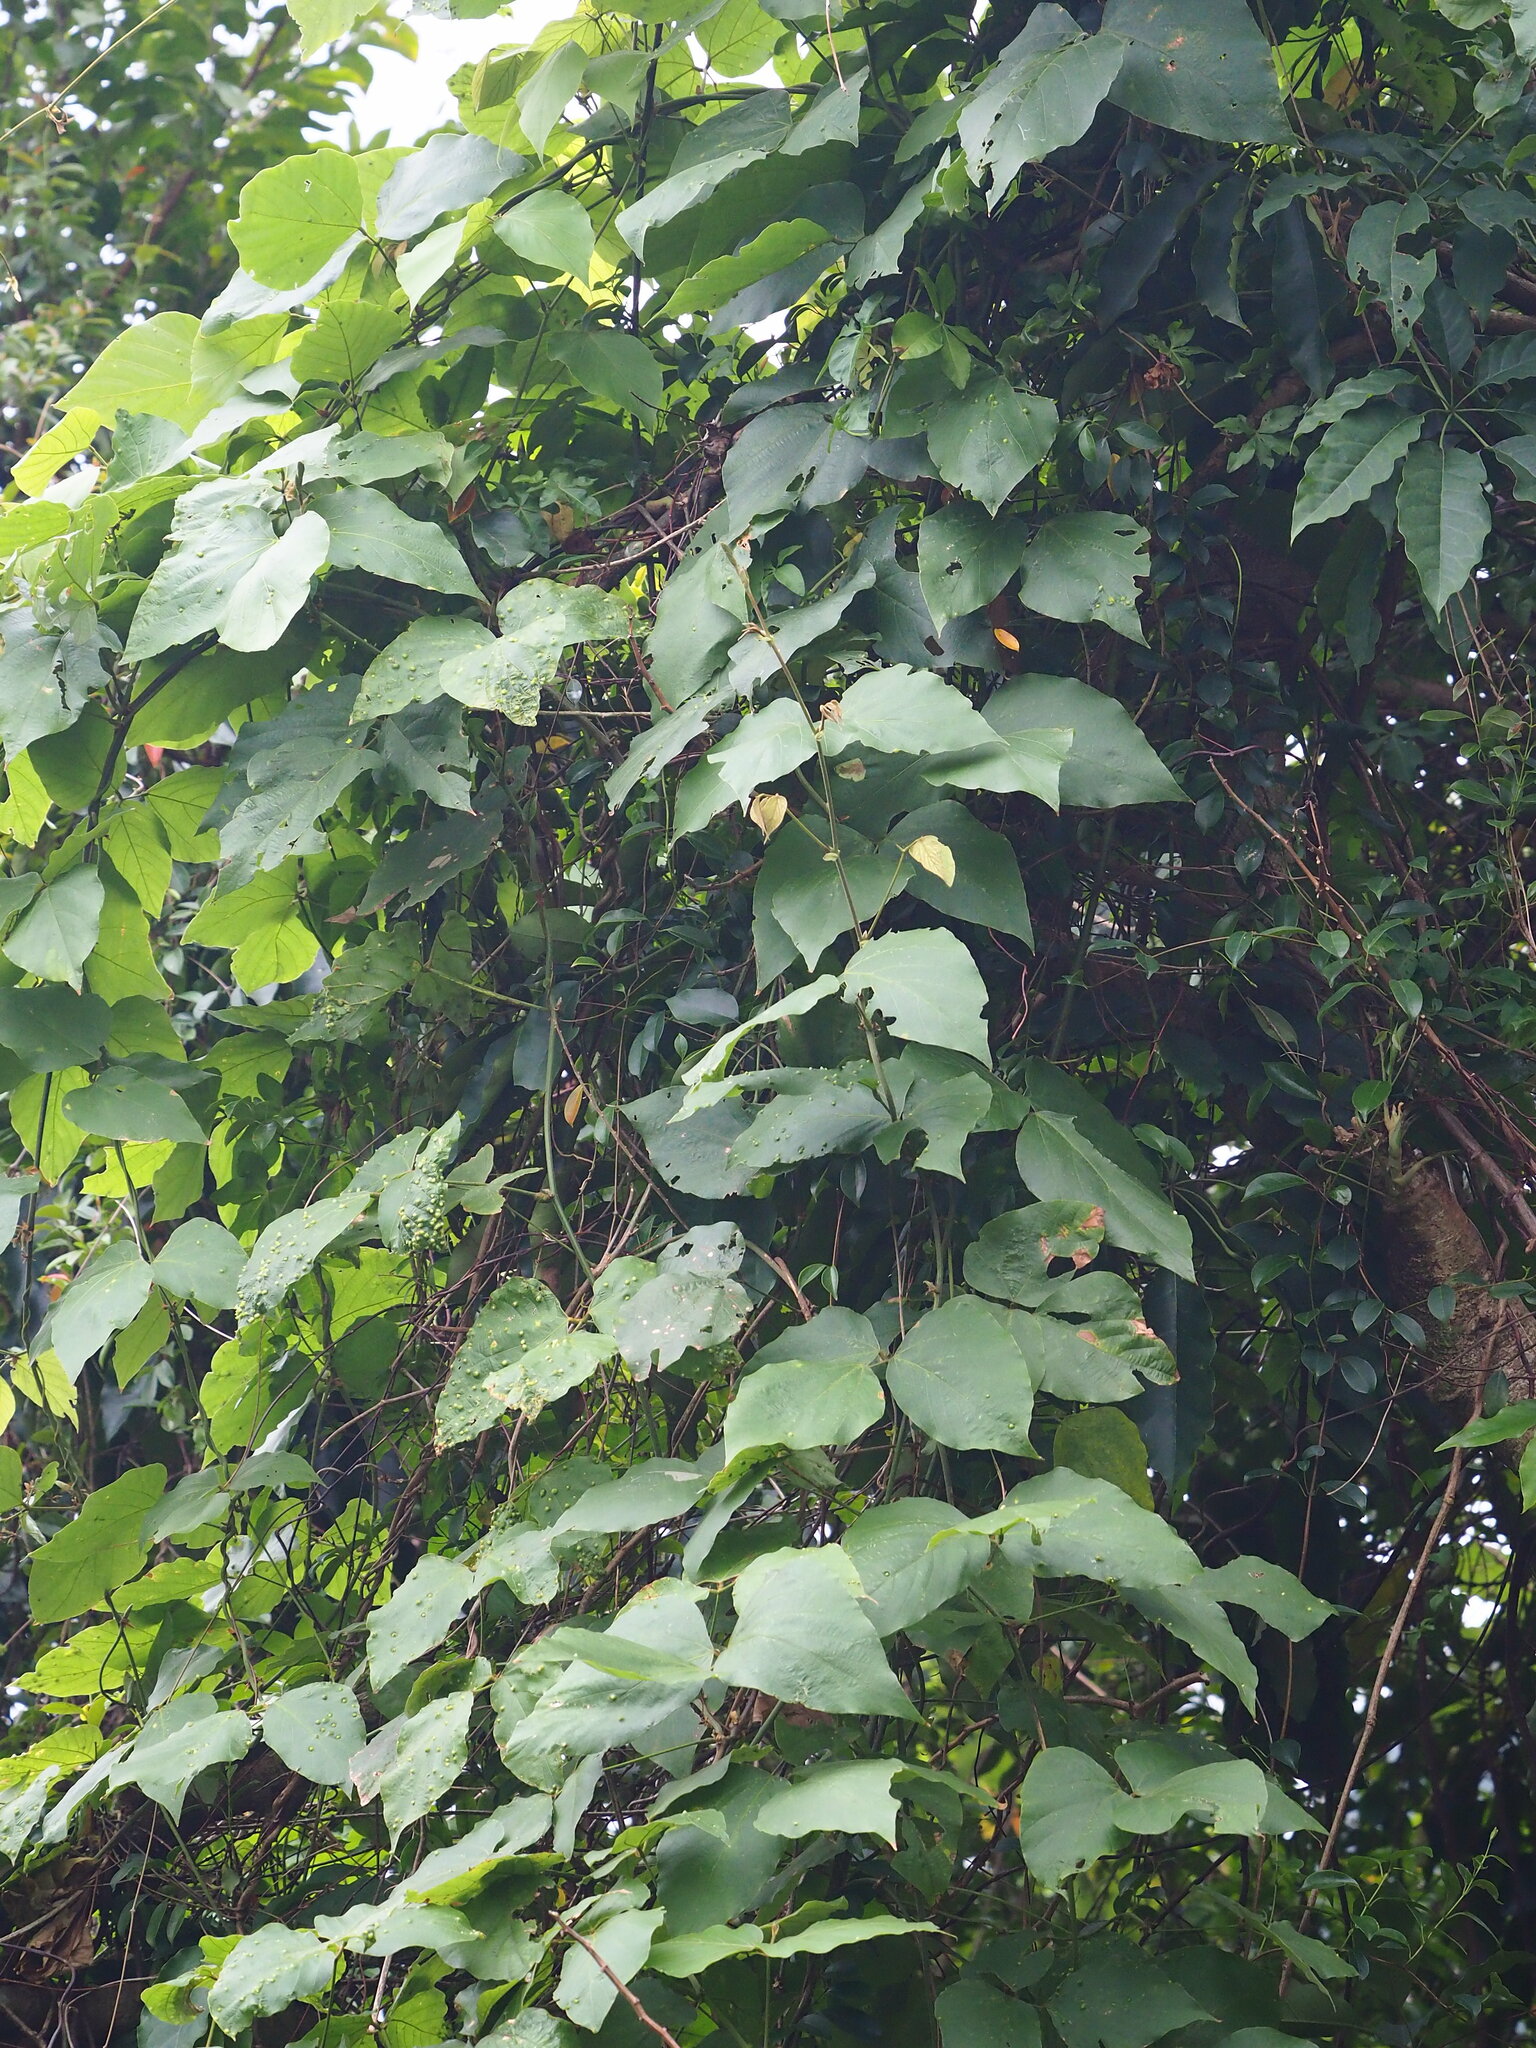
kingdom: Plantae
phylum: Tracheophyta
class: Magnoliopsida
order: Fabales
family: Fabaceae
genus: Pueraria
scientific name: Pueraria montana
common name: Kudzu
